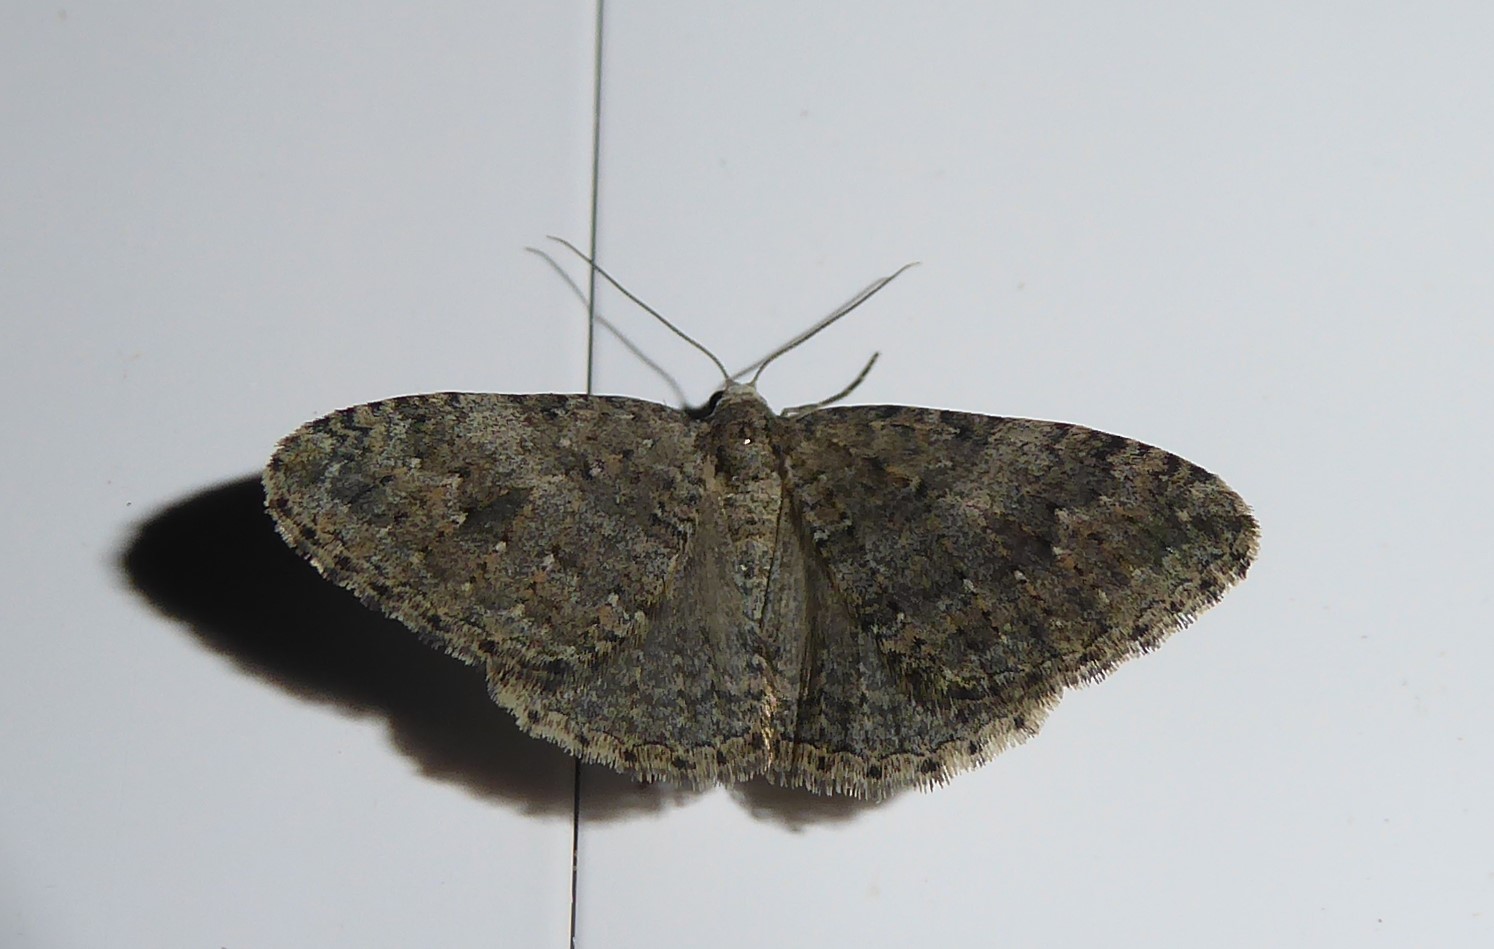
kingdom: Animalia
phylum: Arthropoda
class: Insecta
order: Lepidoptera
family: Geometridae
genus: Helastia
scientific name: Helastia corcularia
